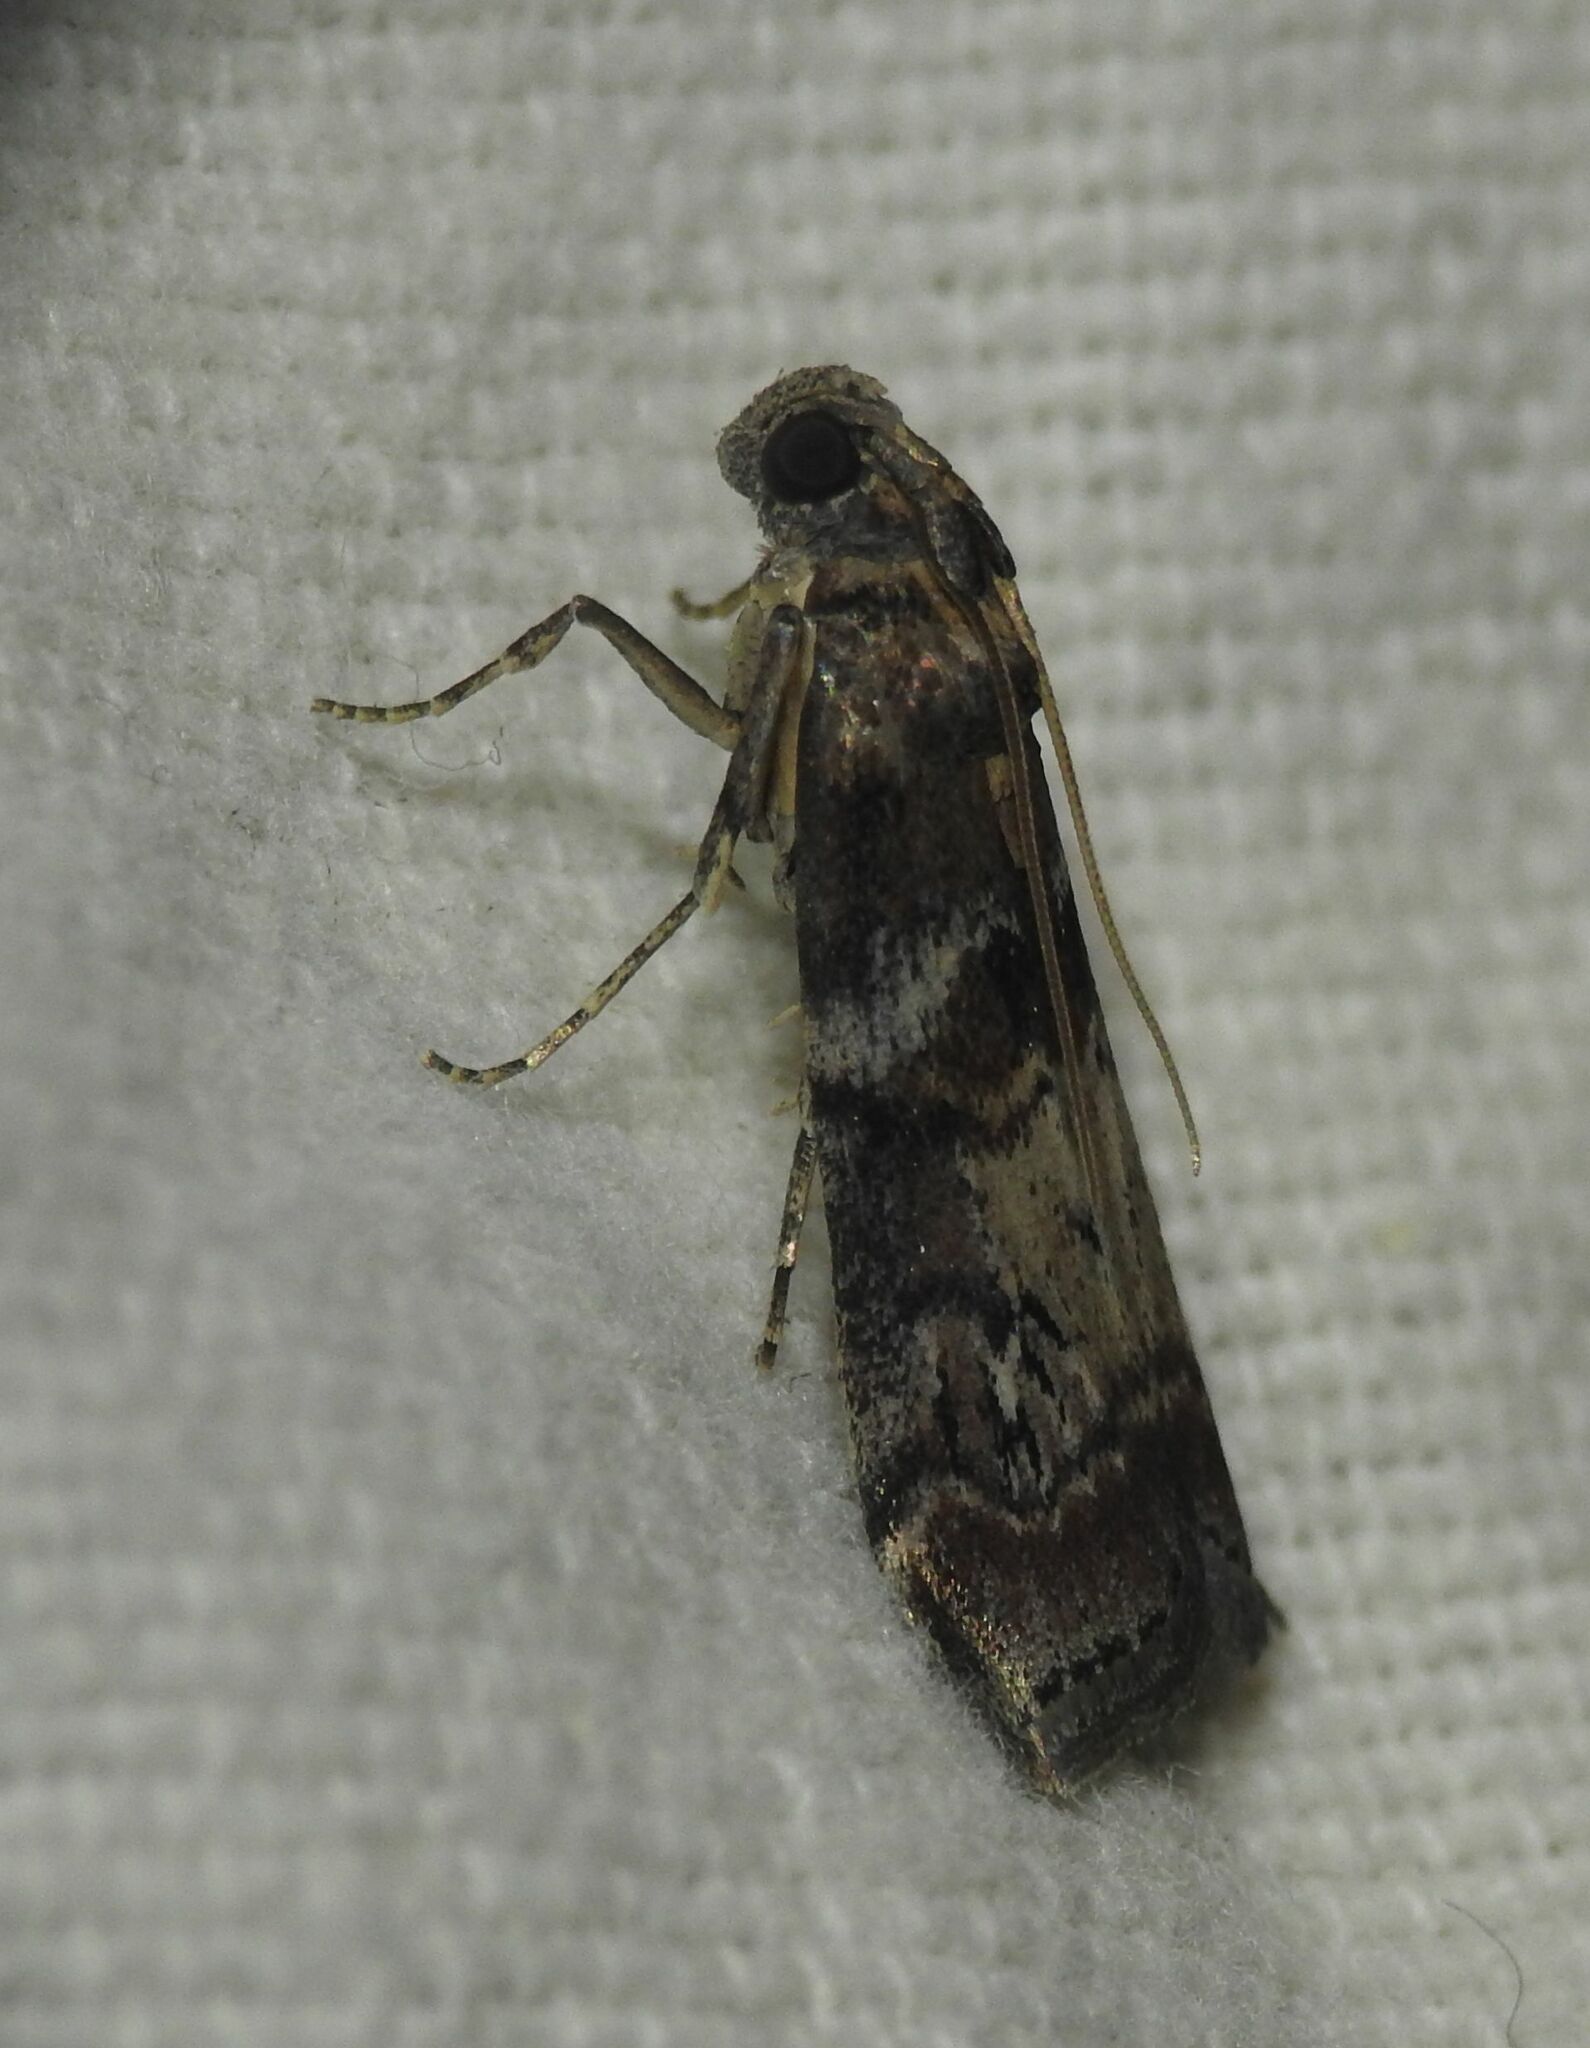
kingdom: Animalia
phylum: Arthropoda
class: Insecta
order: Lepidoptera
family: Pyralidae
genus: Phycita
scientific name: Phycita roborella
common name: Dotted oak knot-horn
